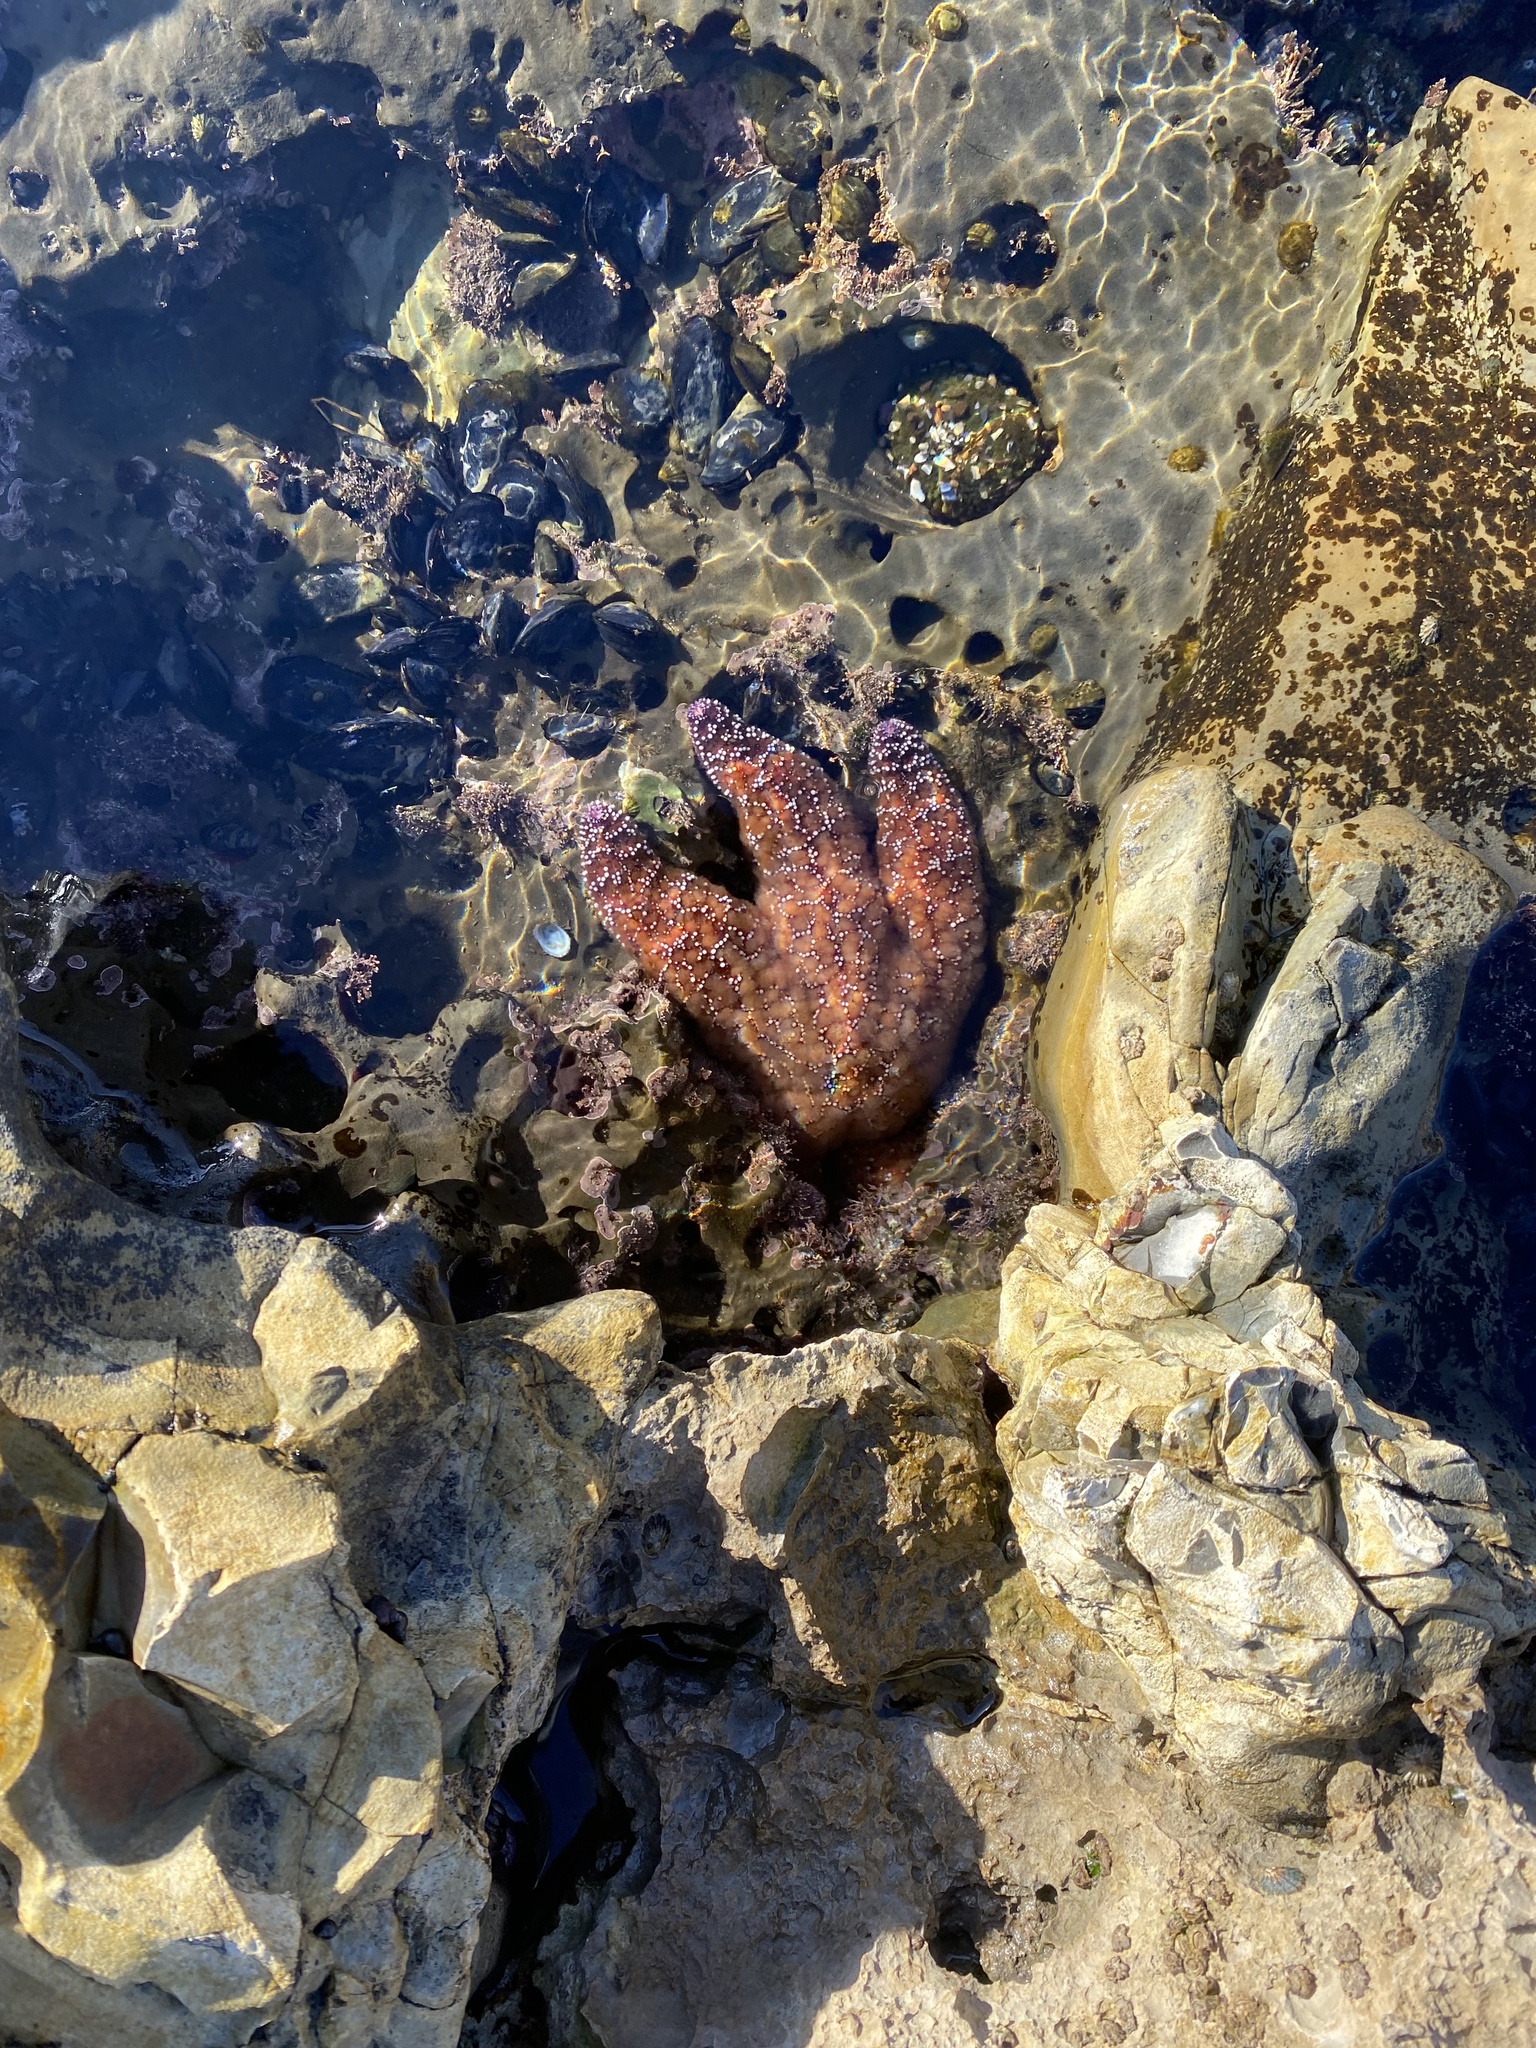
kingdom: Animalia
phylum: Echinodermata
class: Asteroidea
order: Forcipulatida
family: Asteriidae
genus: Pisaster
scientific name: Pisaster ochraceus
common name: Ochre stars
